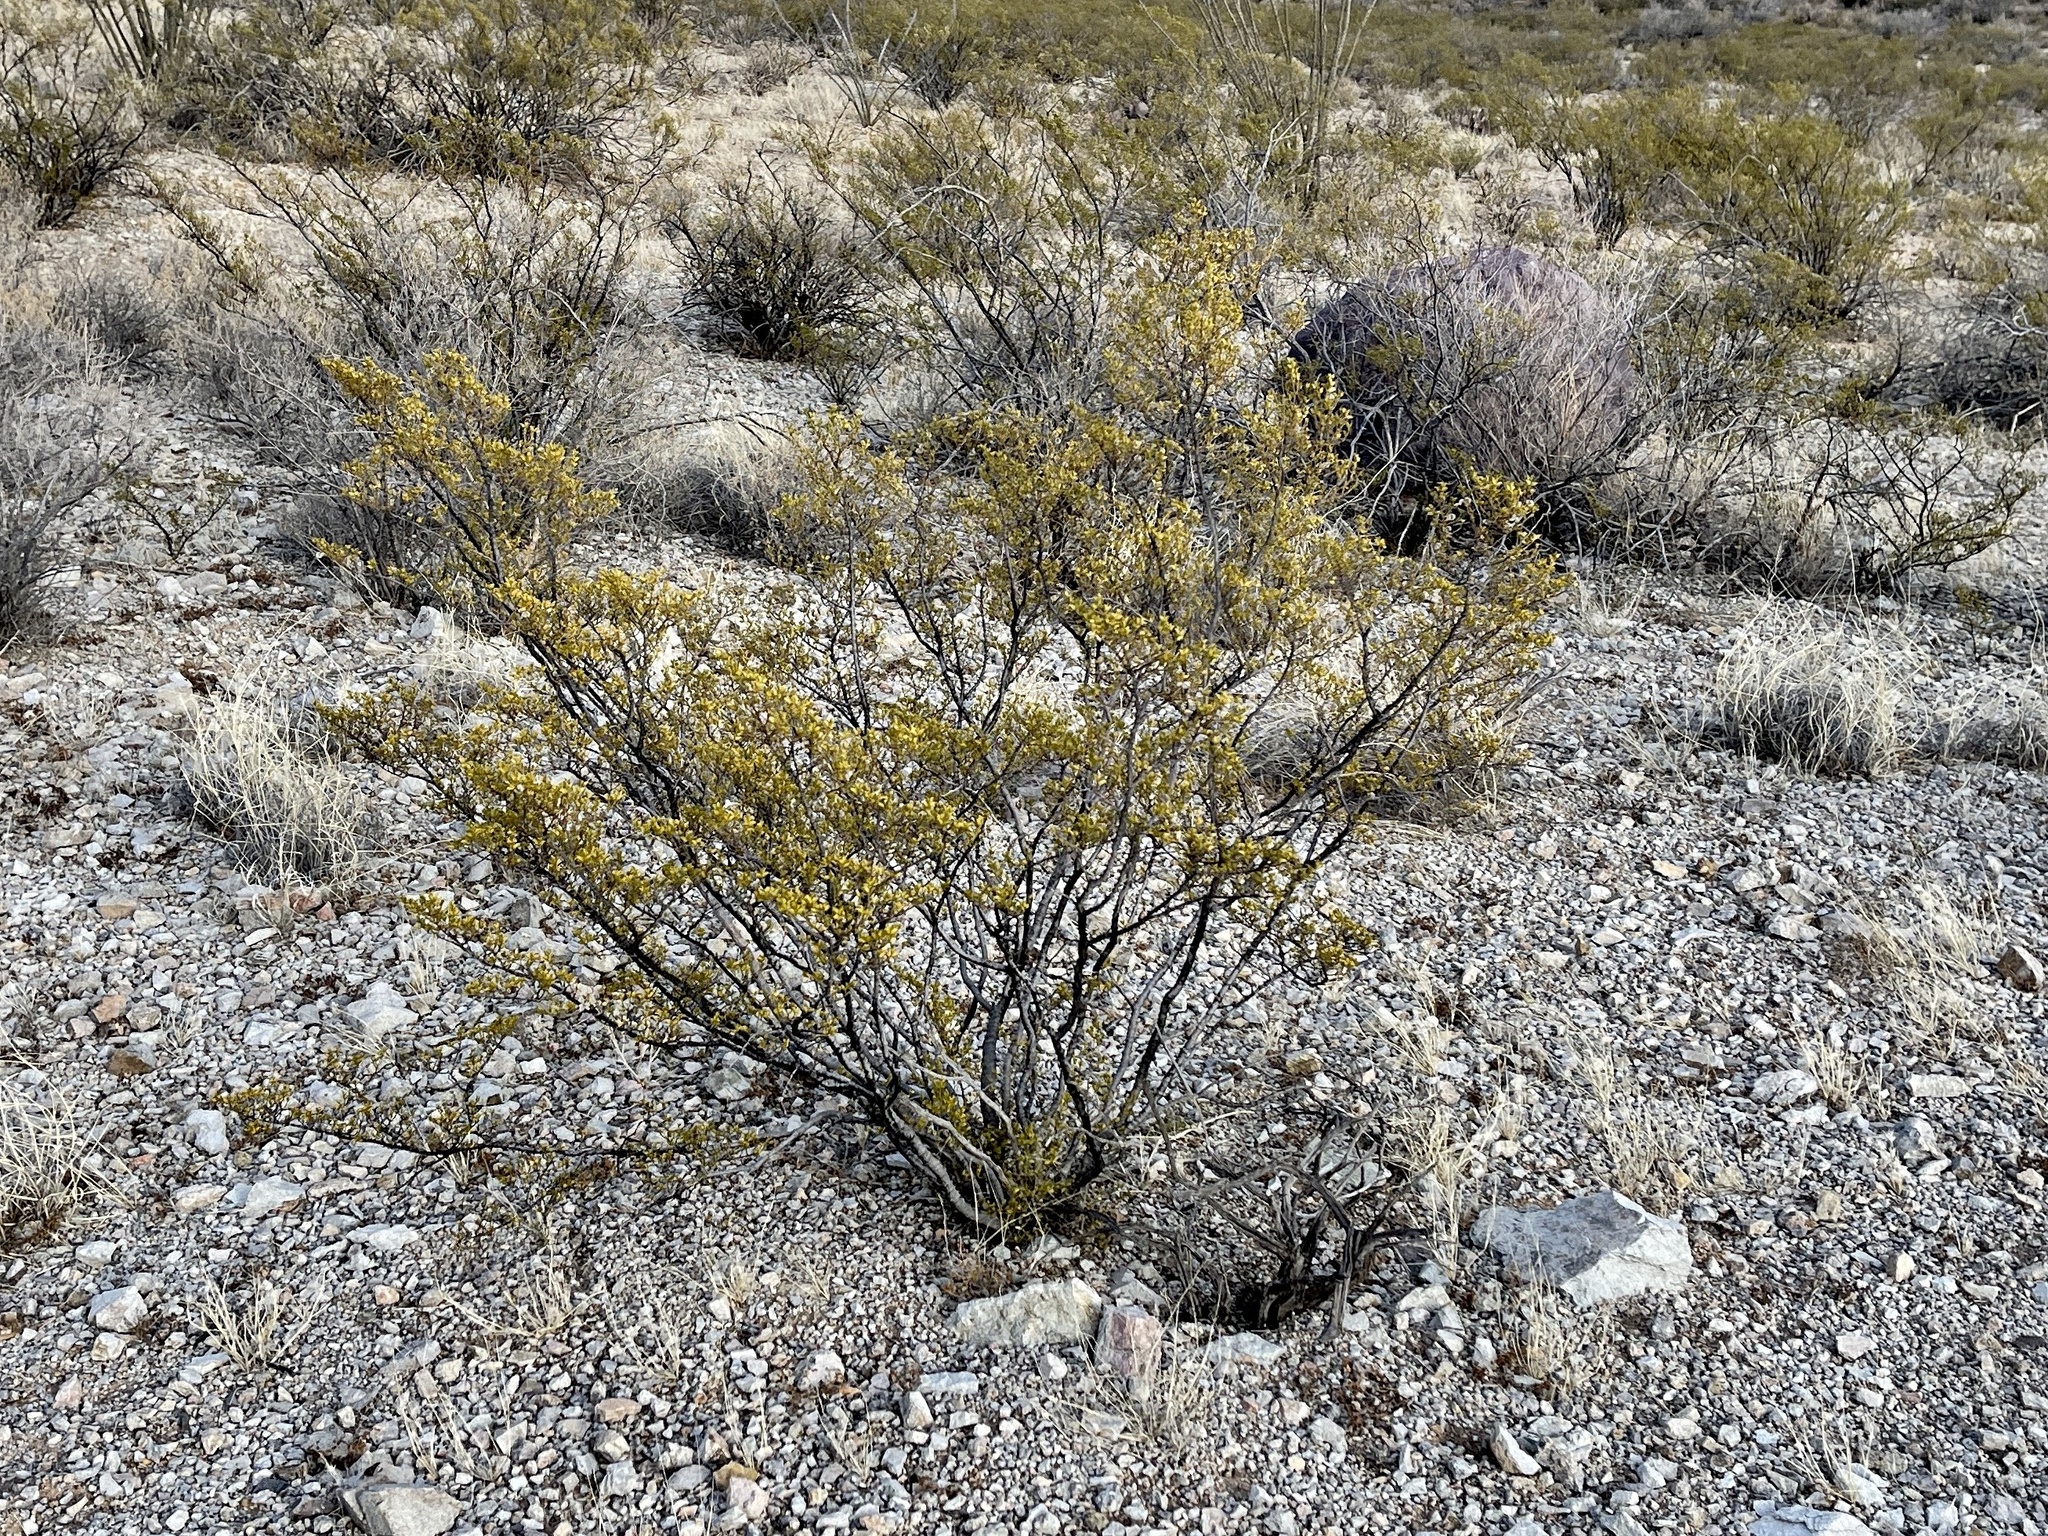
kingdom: Plantae
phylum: Tracheophyta
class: Magnoliopsida
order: Zygophyllales
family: Zygophyllaceae
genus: Larrea
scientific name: Larrea tridentata
